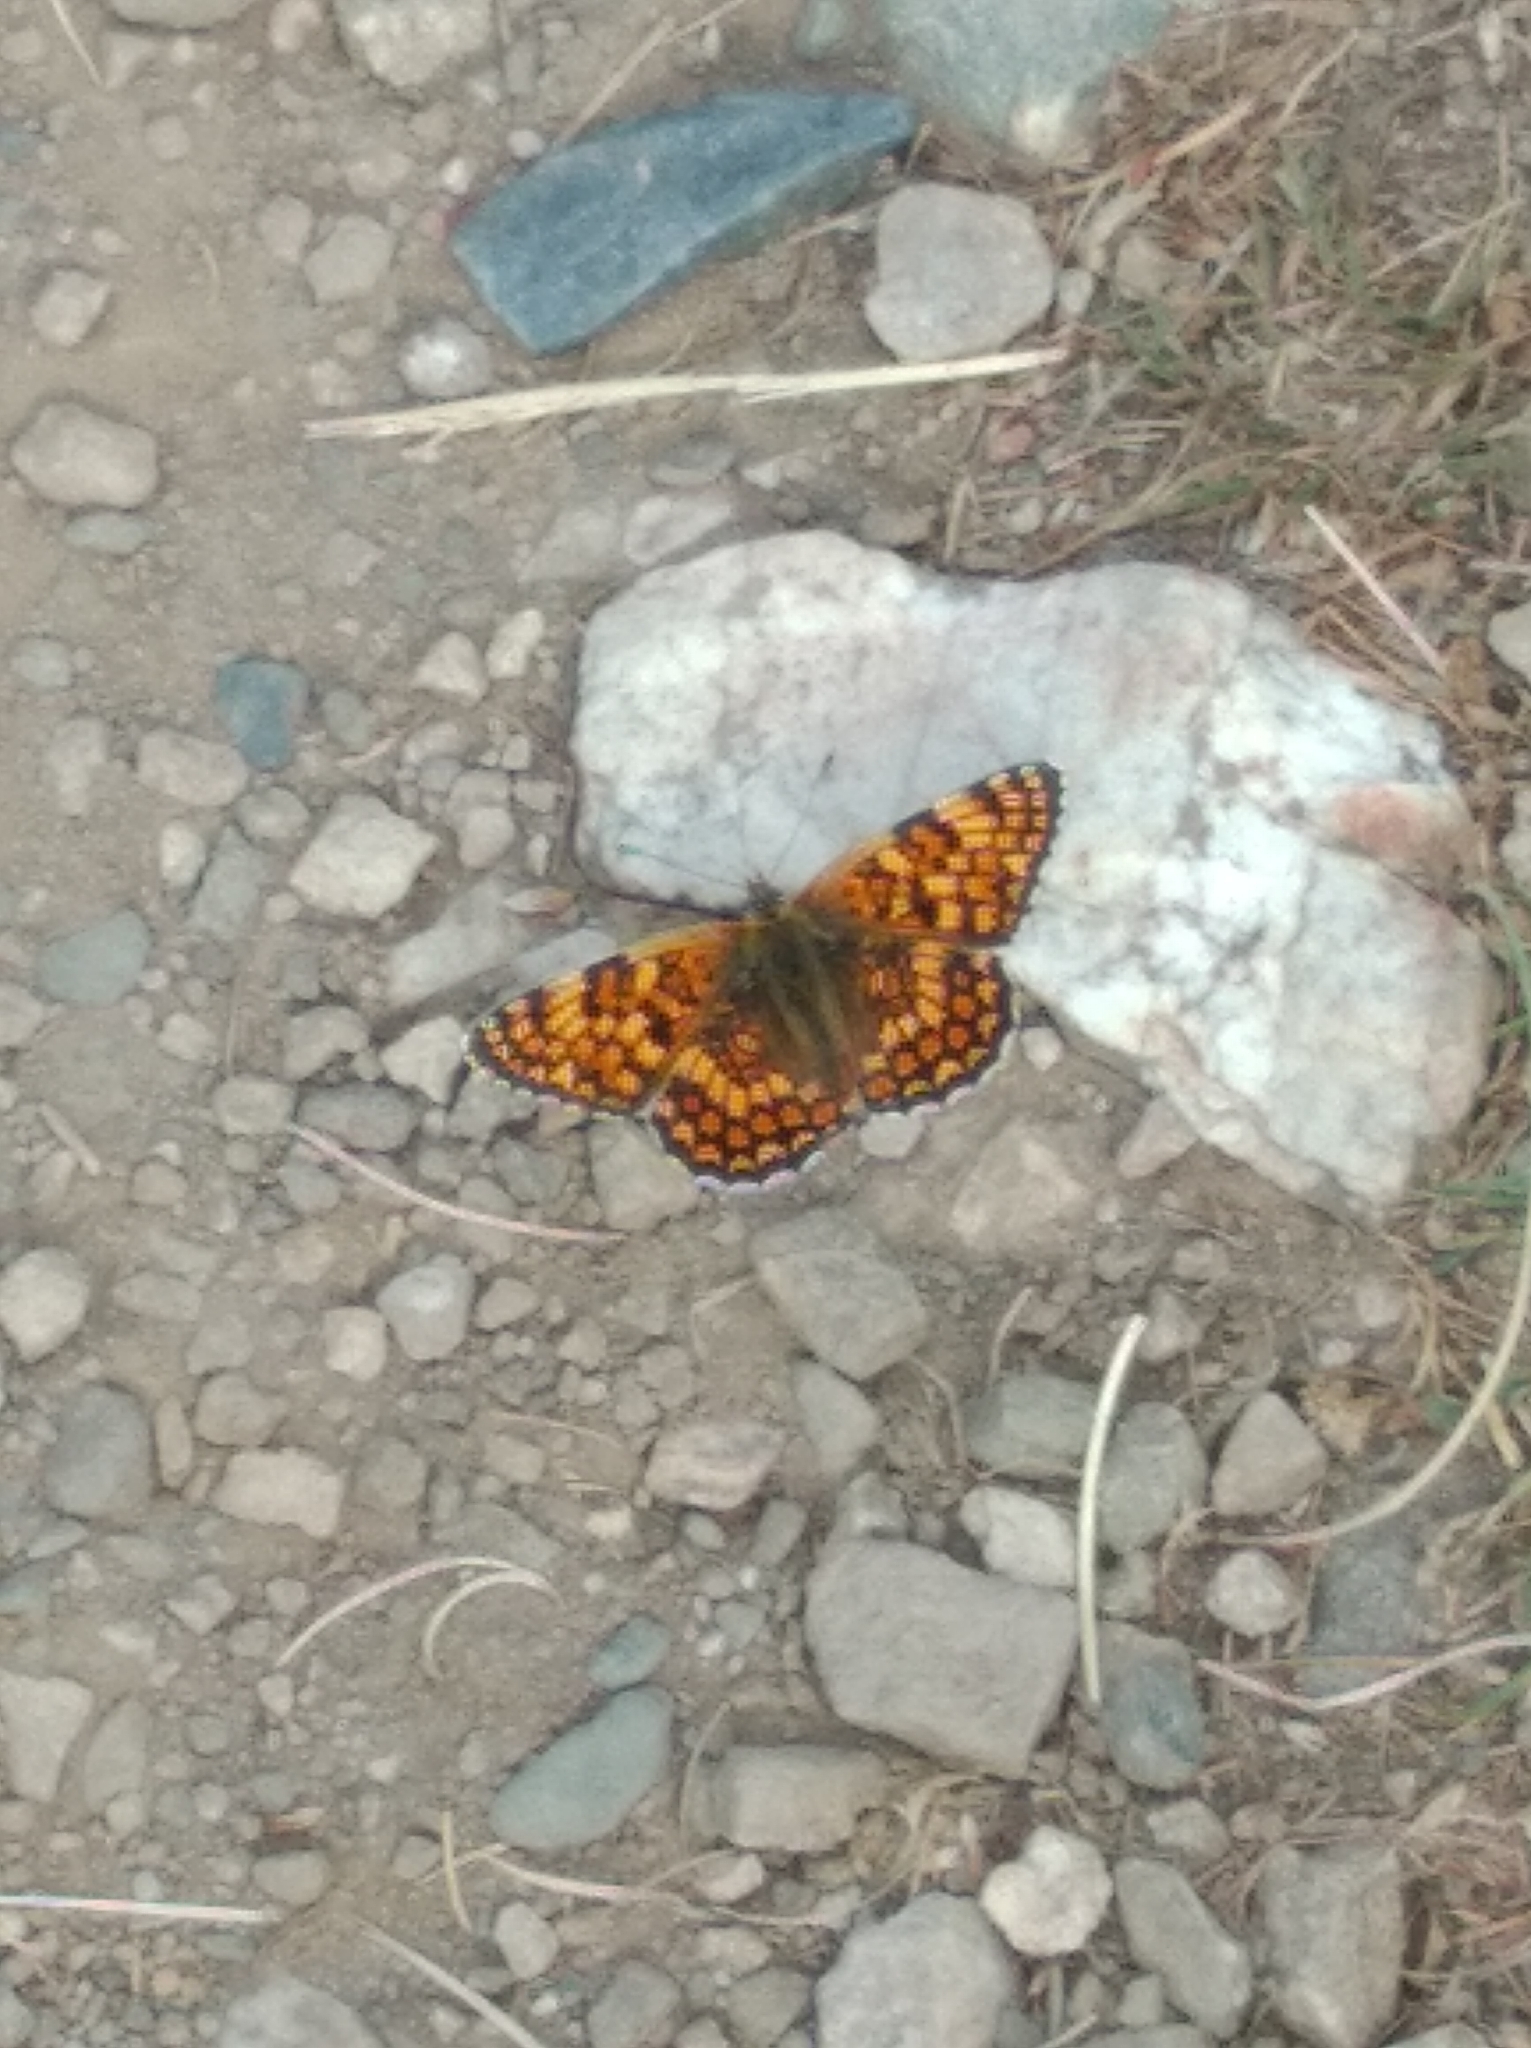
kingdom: Animalia
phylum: Arthropoda
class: Insecta
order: Lepidoptera
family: Nymphalidae
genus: Melitaea
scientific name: Melitaea phoebe
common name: Knapweed fritillary
